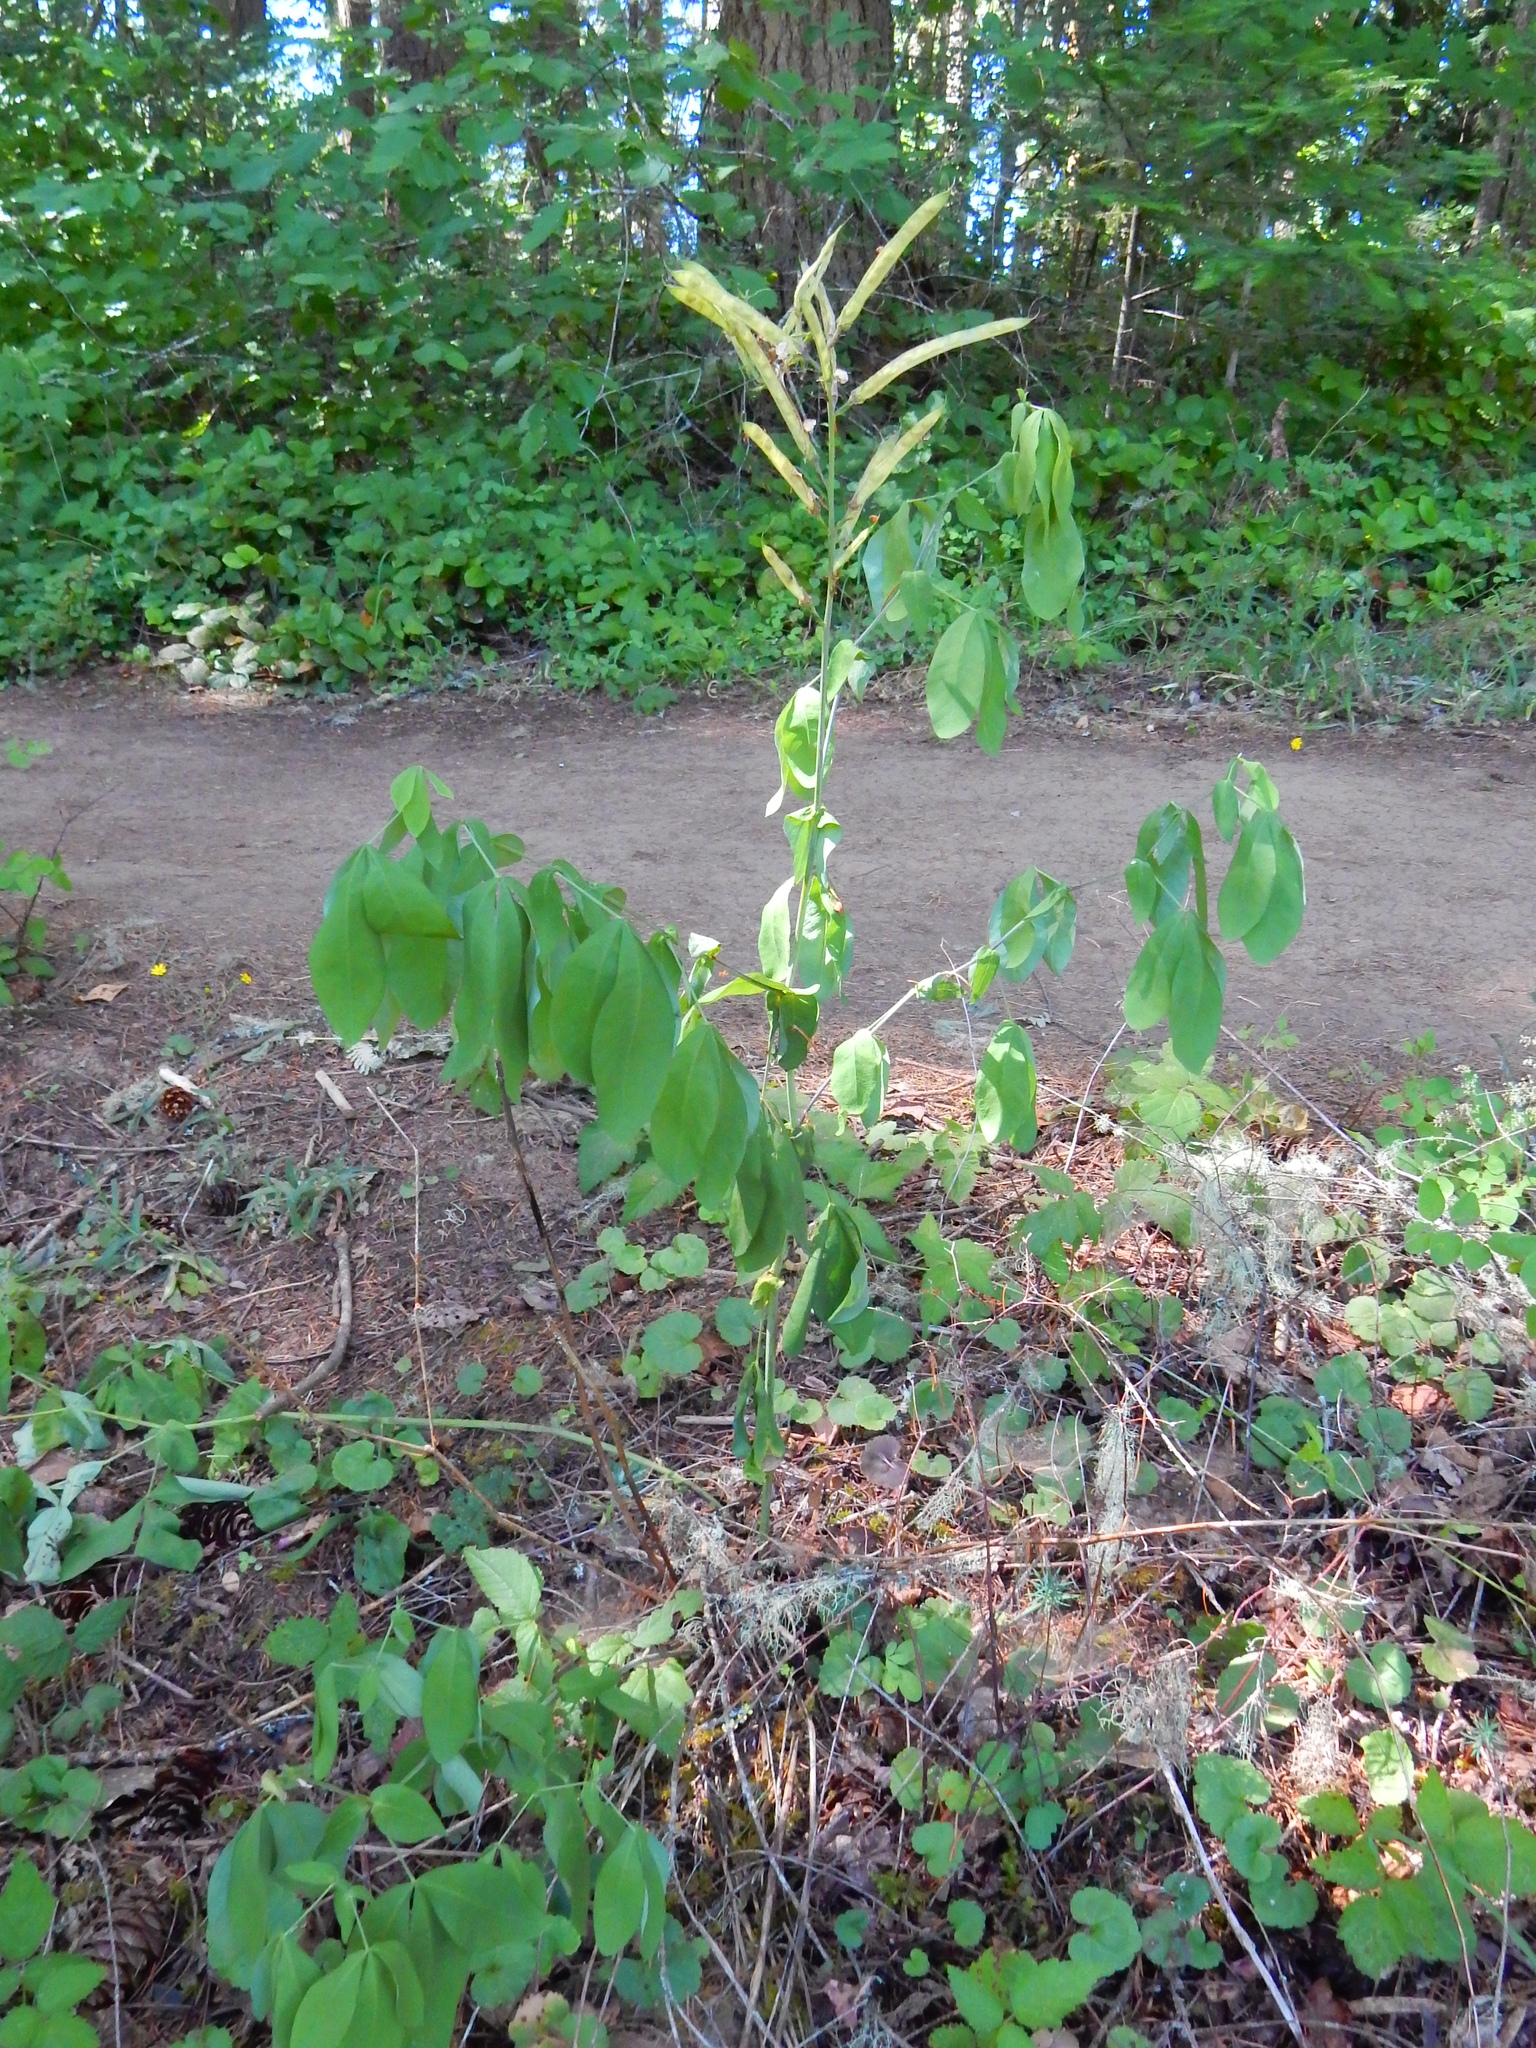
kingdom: Plantae
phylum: Tracheophyta
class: Magnoliopsida
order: Fabales
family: Fabaceae
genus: Thermopsis
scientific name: Thermopsis gracilis
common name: Slender golden-banner
